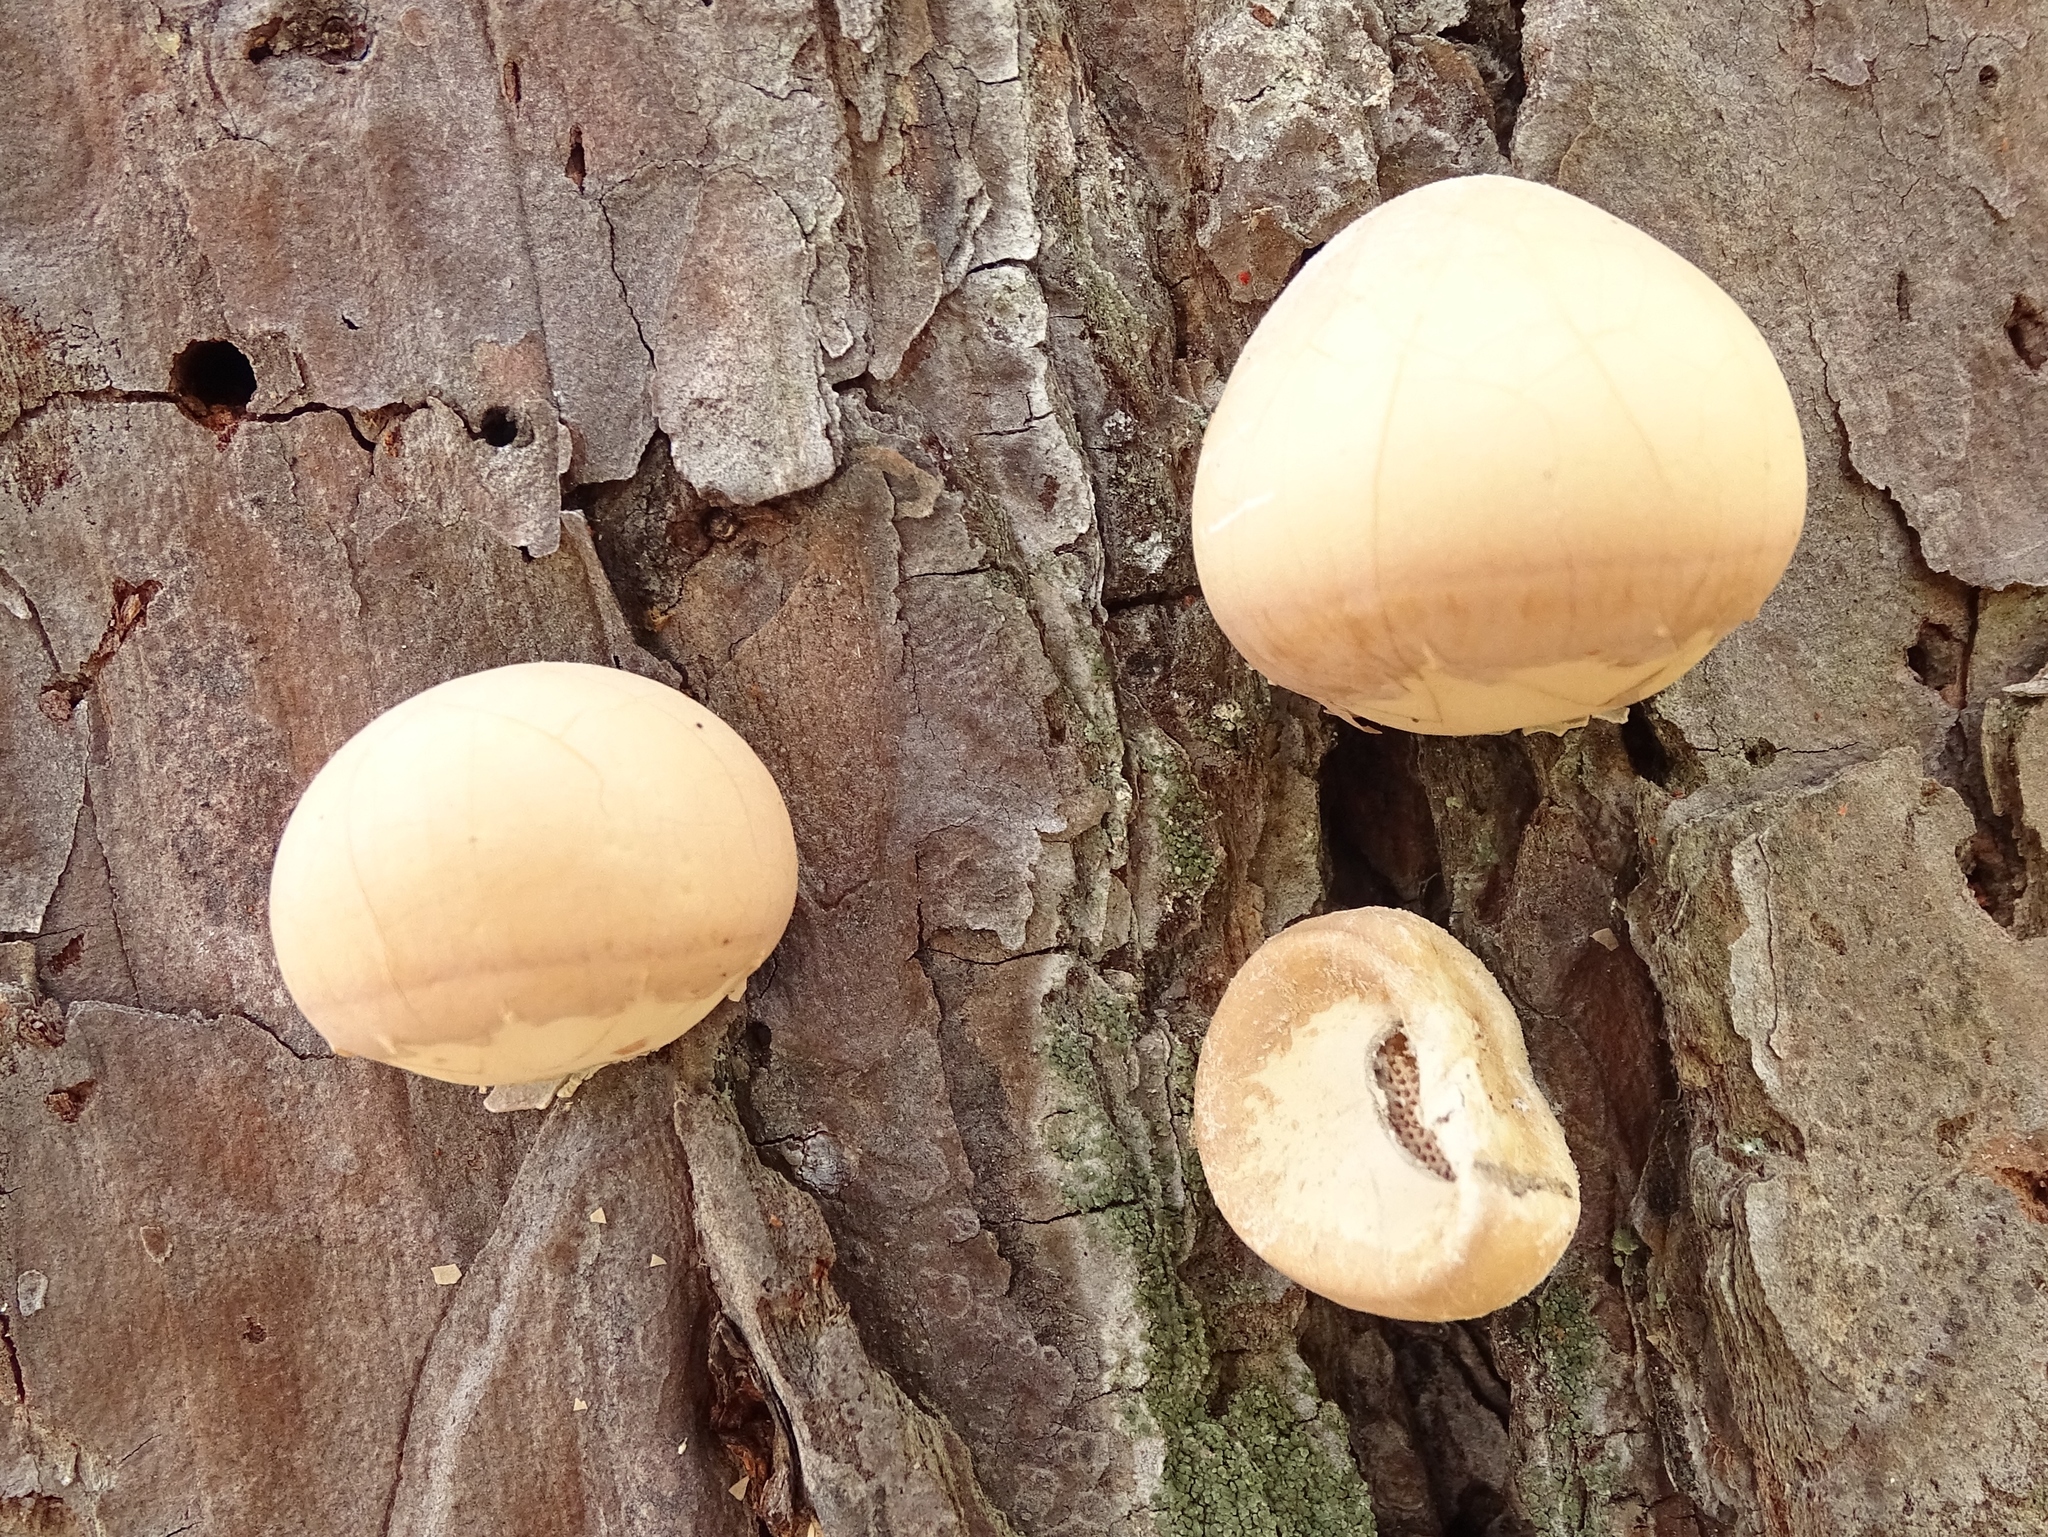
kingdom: Fungi
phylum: Basidiomycota
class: Agaricomycetes
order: Polyporales
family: Polyporaceae
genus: Cryptoporus
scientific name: Cryptoporus volvatus
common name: Veiled polypore
